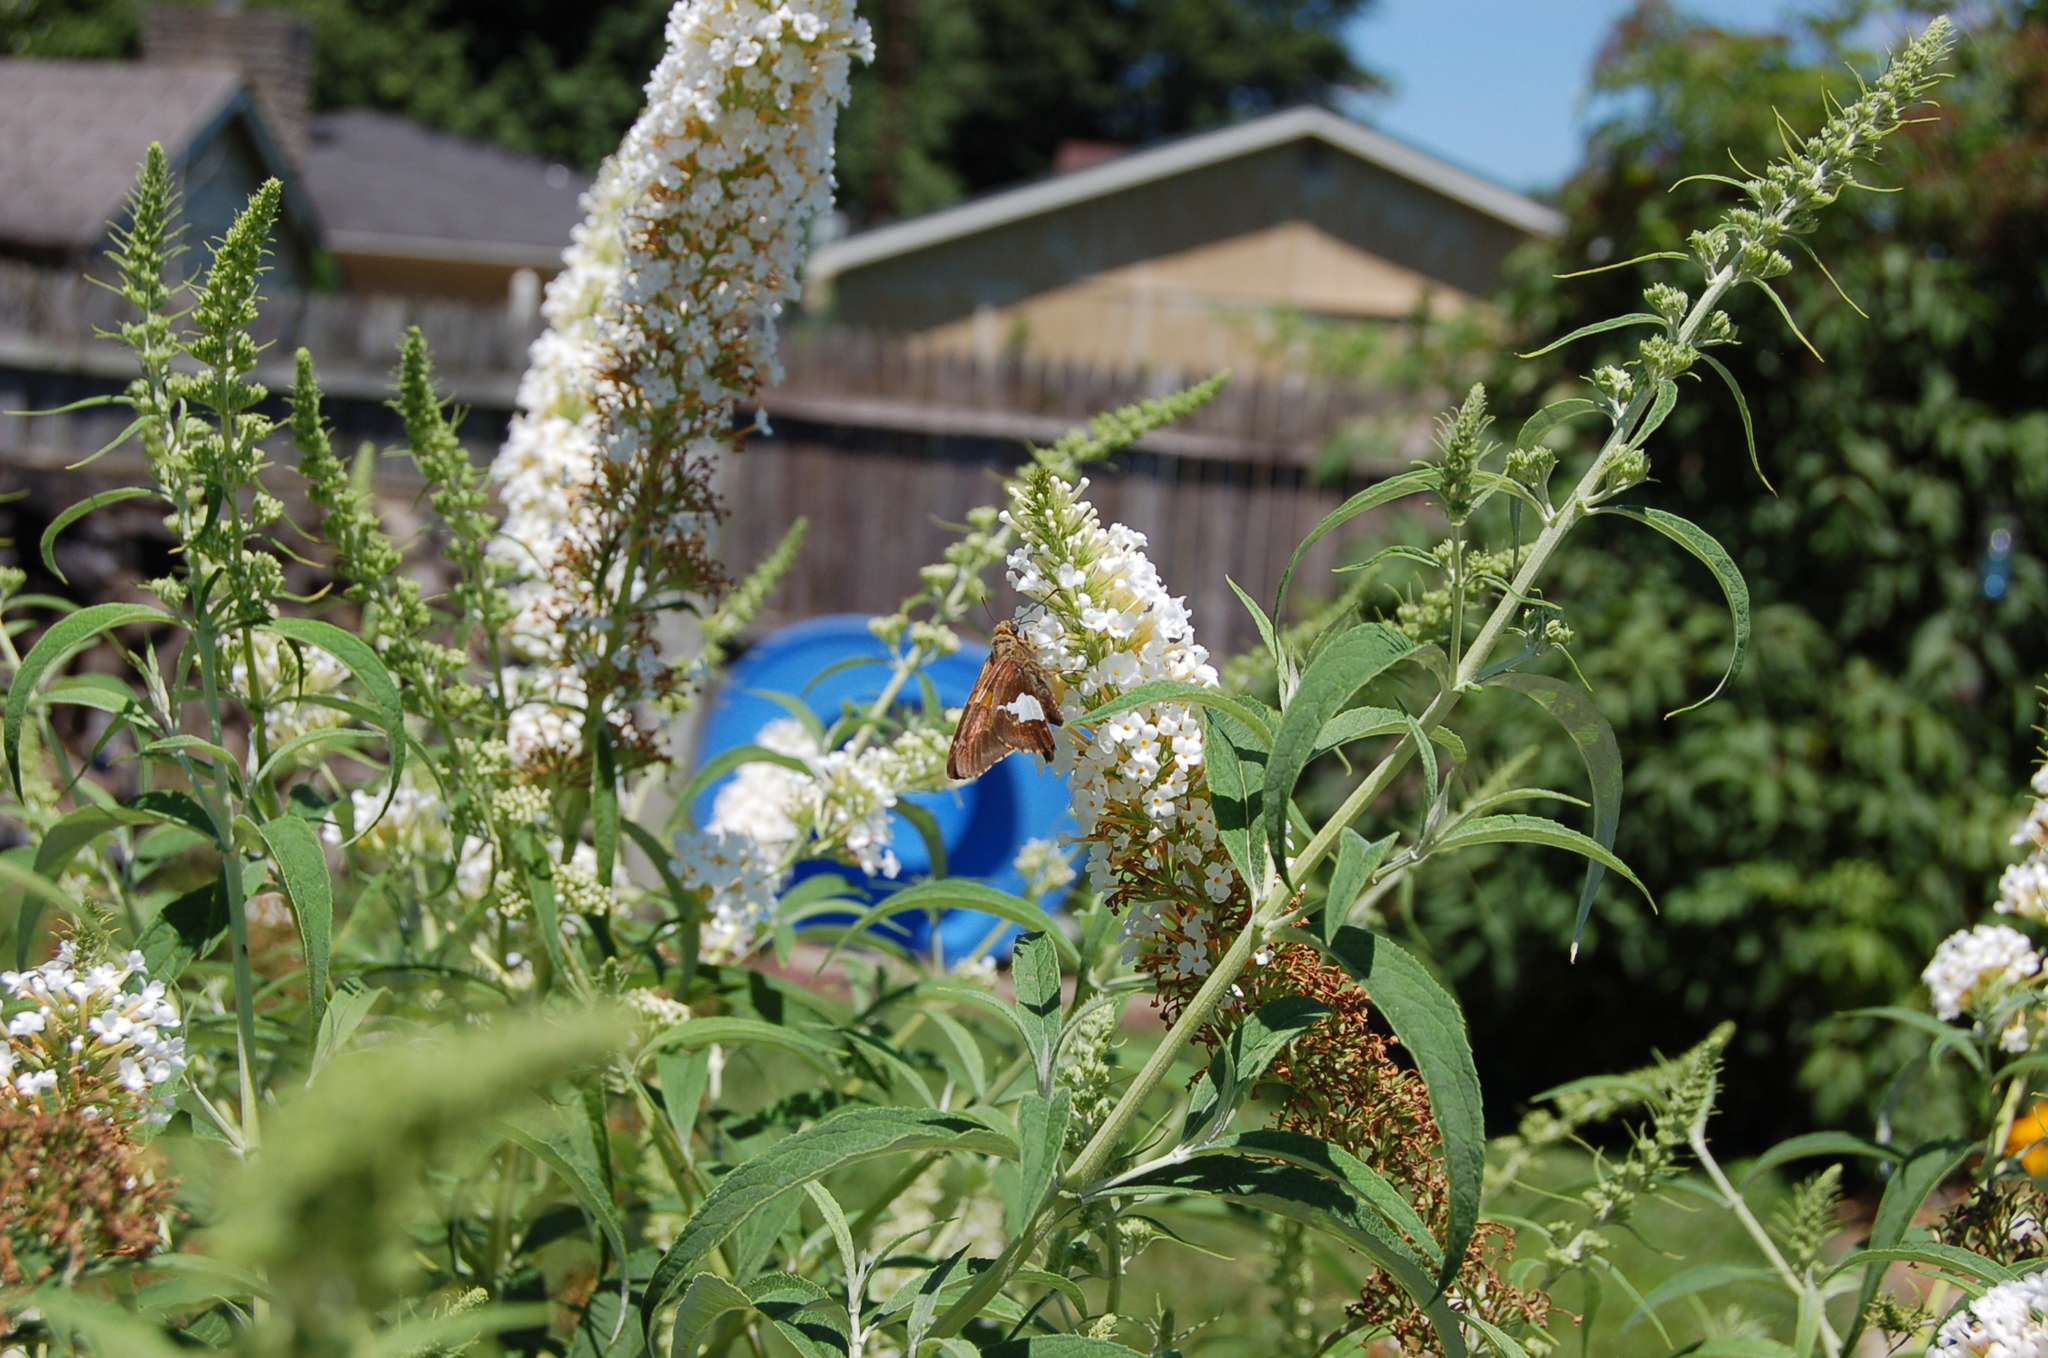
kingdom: Animalia
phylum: Arthropoda
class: Insecta
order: Lepidoptera
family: Hesperiidae
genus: Epargyreus
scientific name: Epargyreus clarus
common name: Silver-spotted skipper
